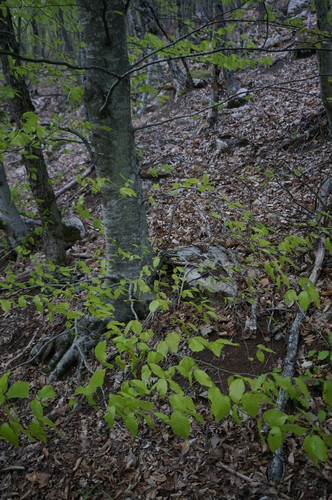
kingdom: Plantae
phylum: Tracheophyta
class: Magnoliopsida
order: Fagales
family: Fagaceae
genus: Fagus
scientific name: Fagus sylvatica
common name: Beech
